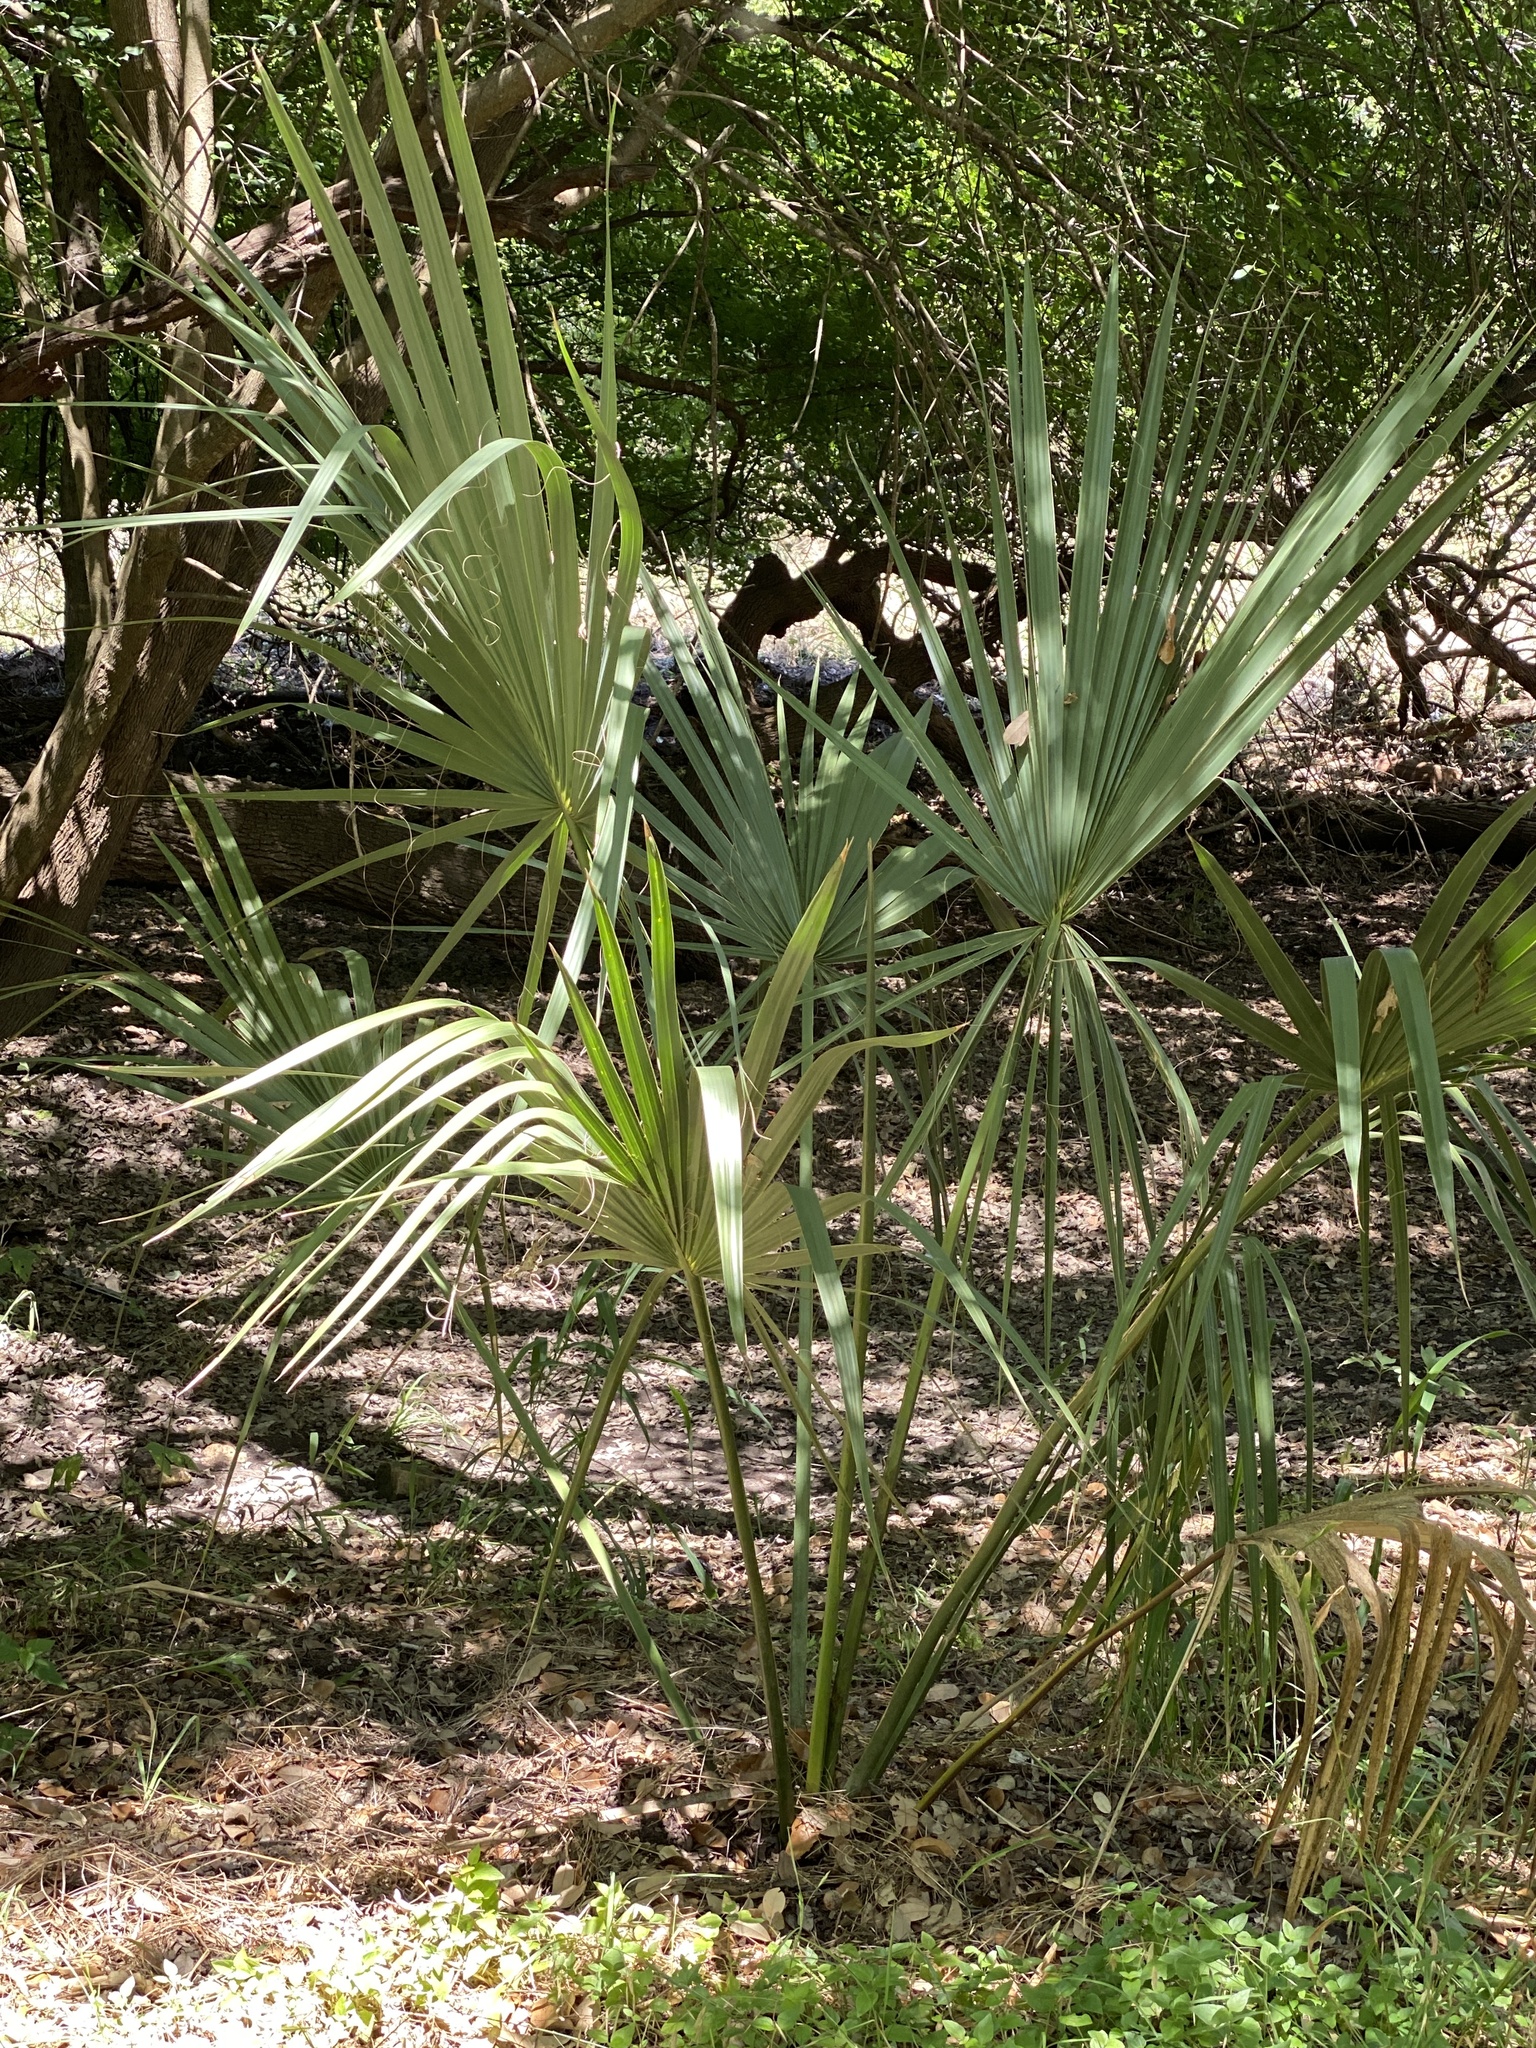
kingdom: Plantae
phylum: Tracheophyta
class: Liliopsida
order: Arecales
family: Arecaceae
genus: Sabal
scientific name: Sabal minor
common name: Dwarf palmetto
